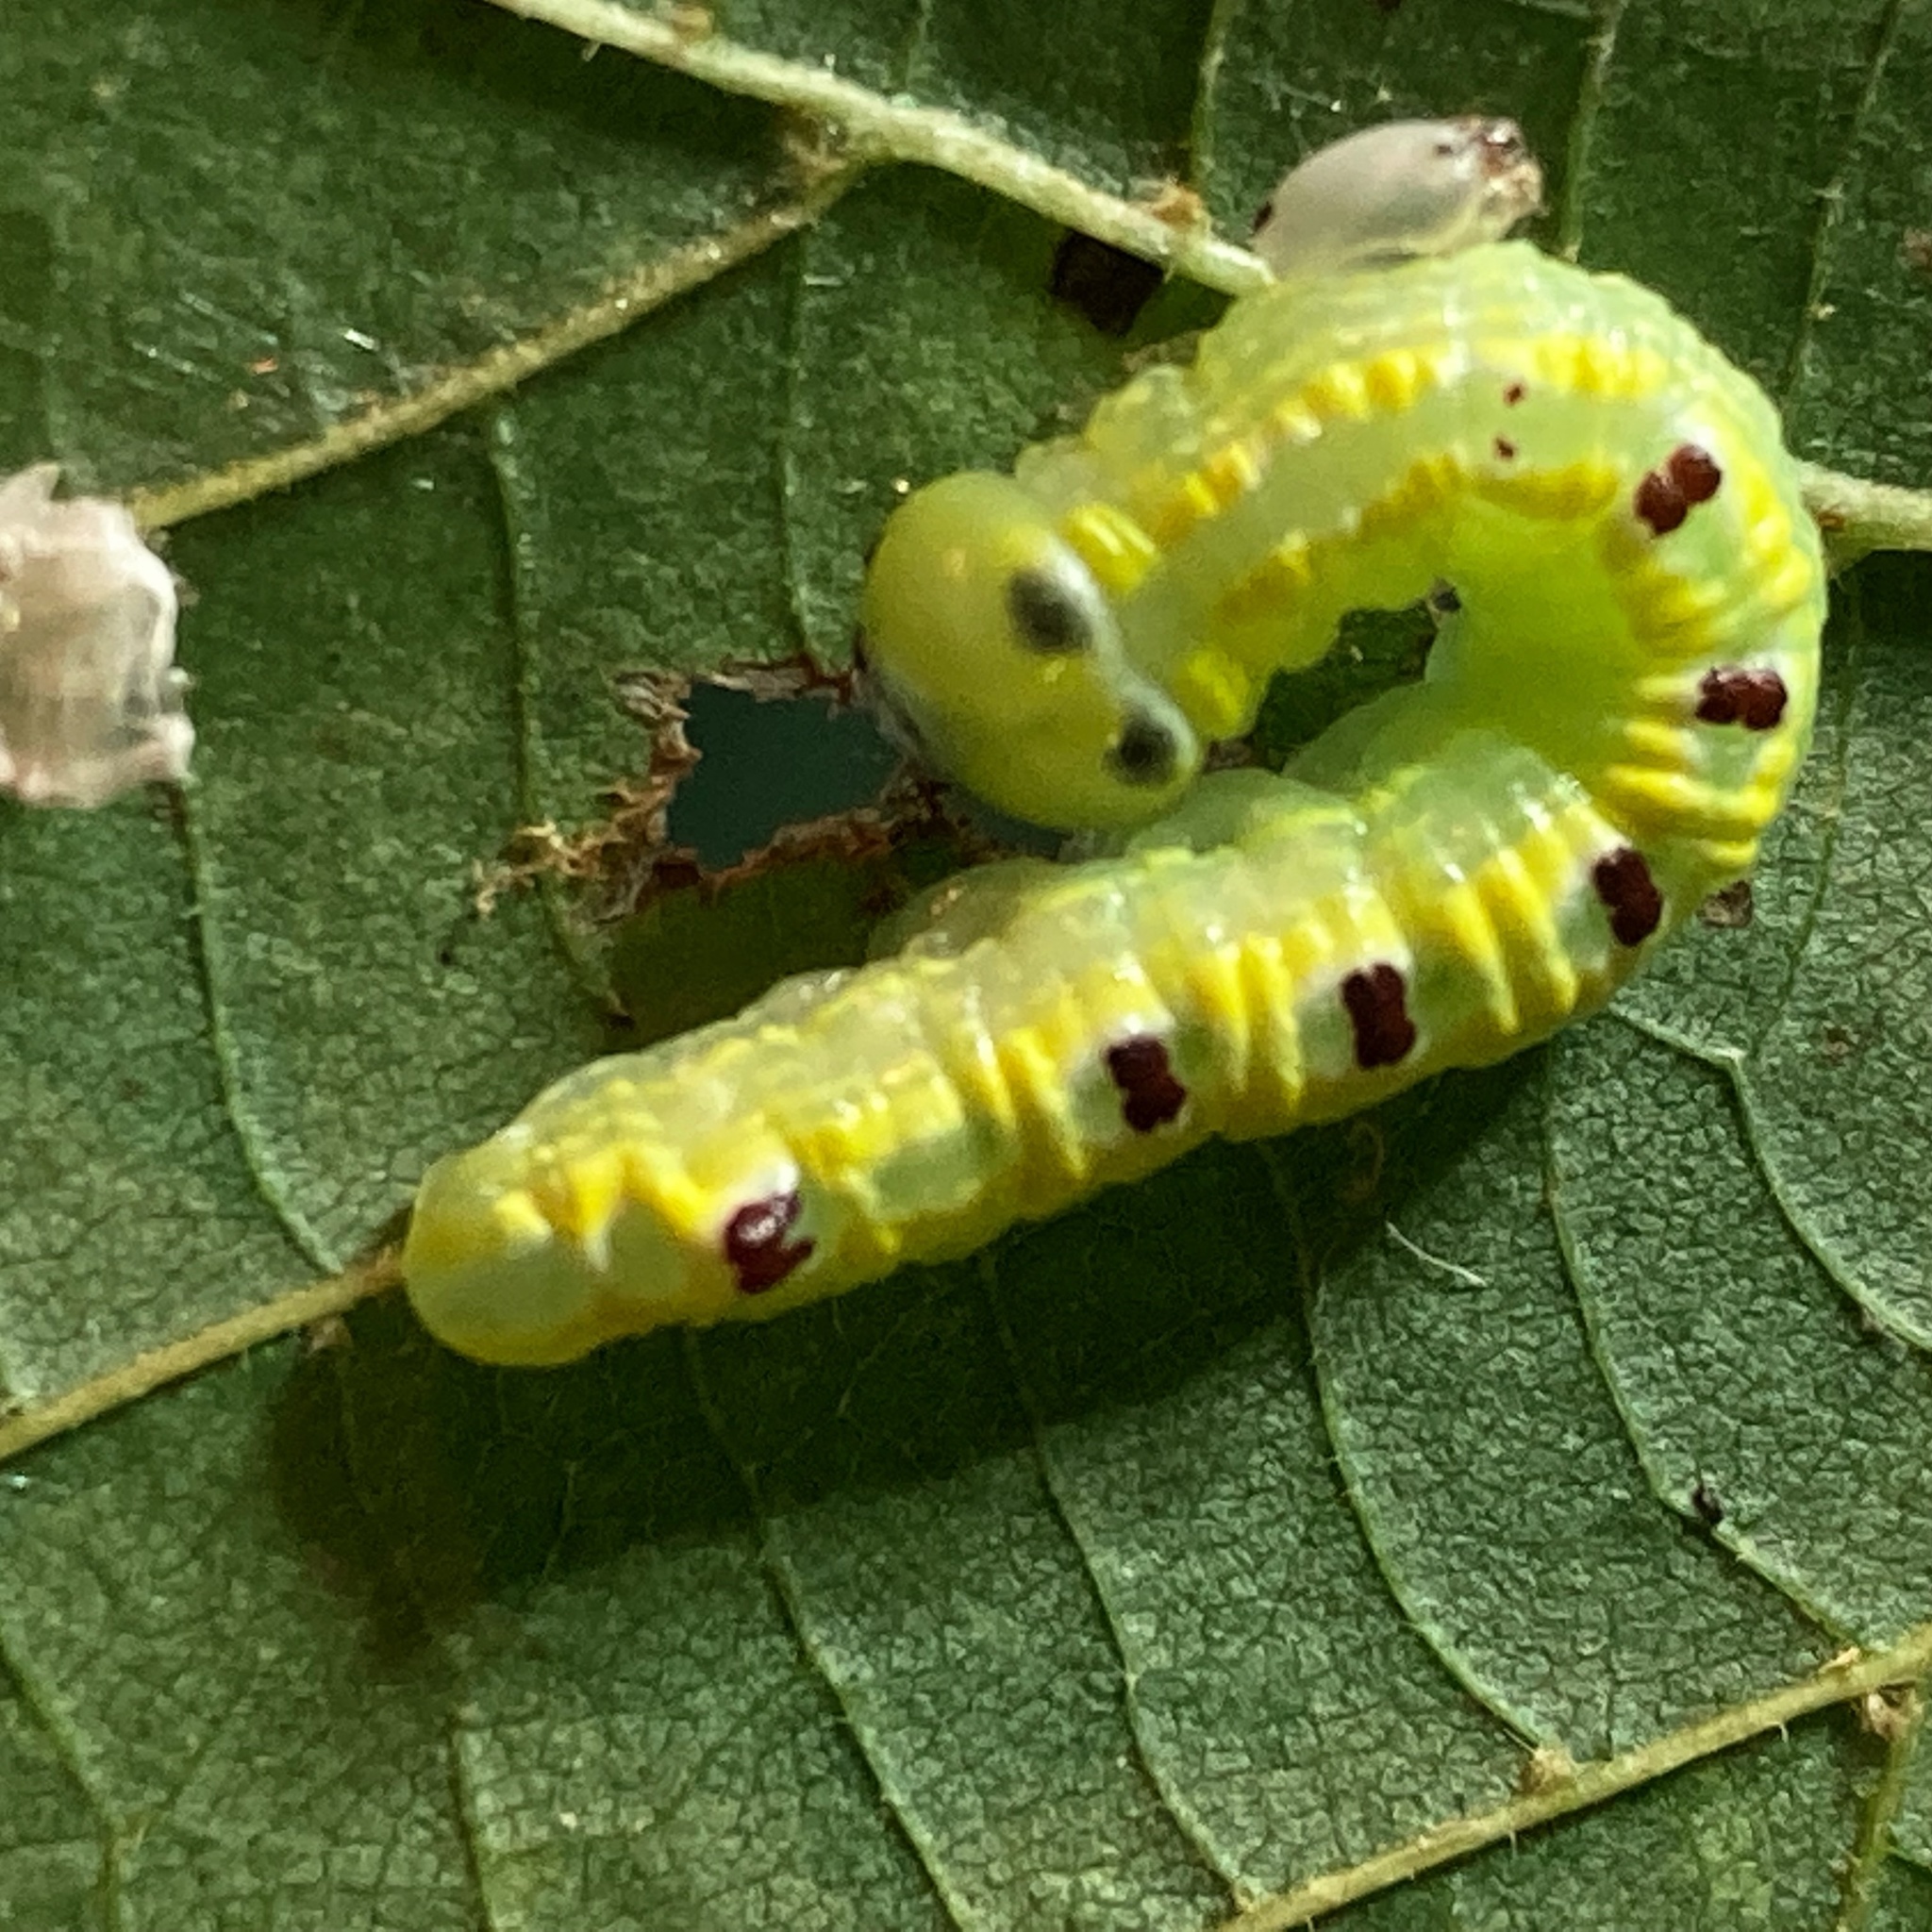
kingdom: Animalia
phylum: Arthropoda
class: Insecta
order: Lepidoptera
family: Notodontidae
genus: Ellida
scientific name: Ellida caniplaga
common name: Linden prominent
